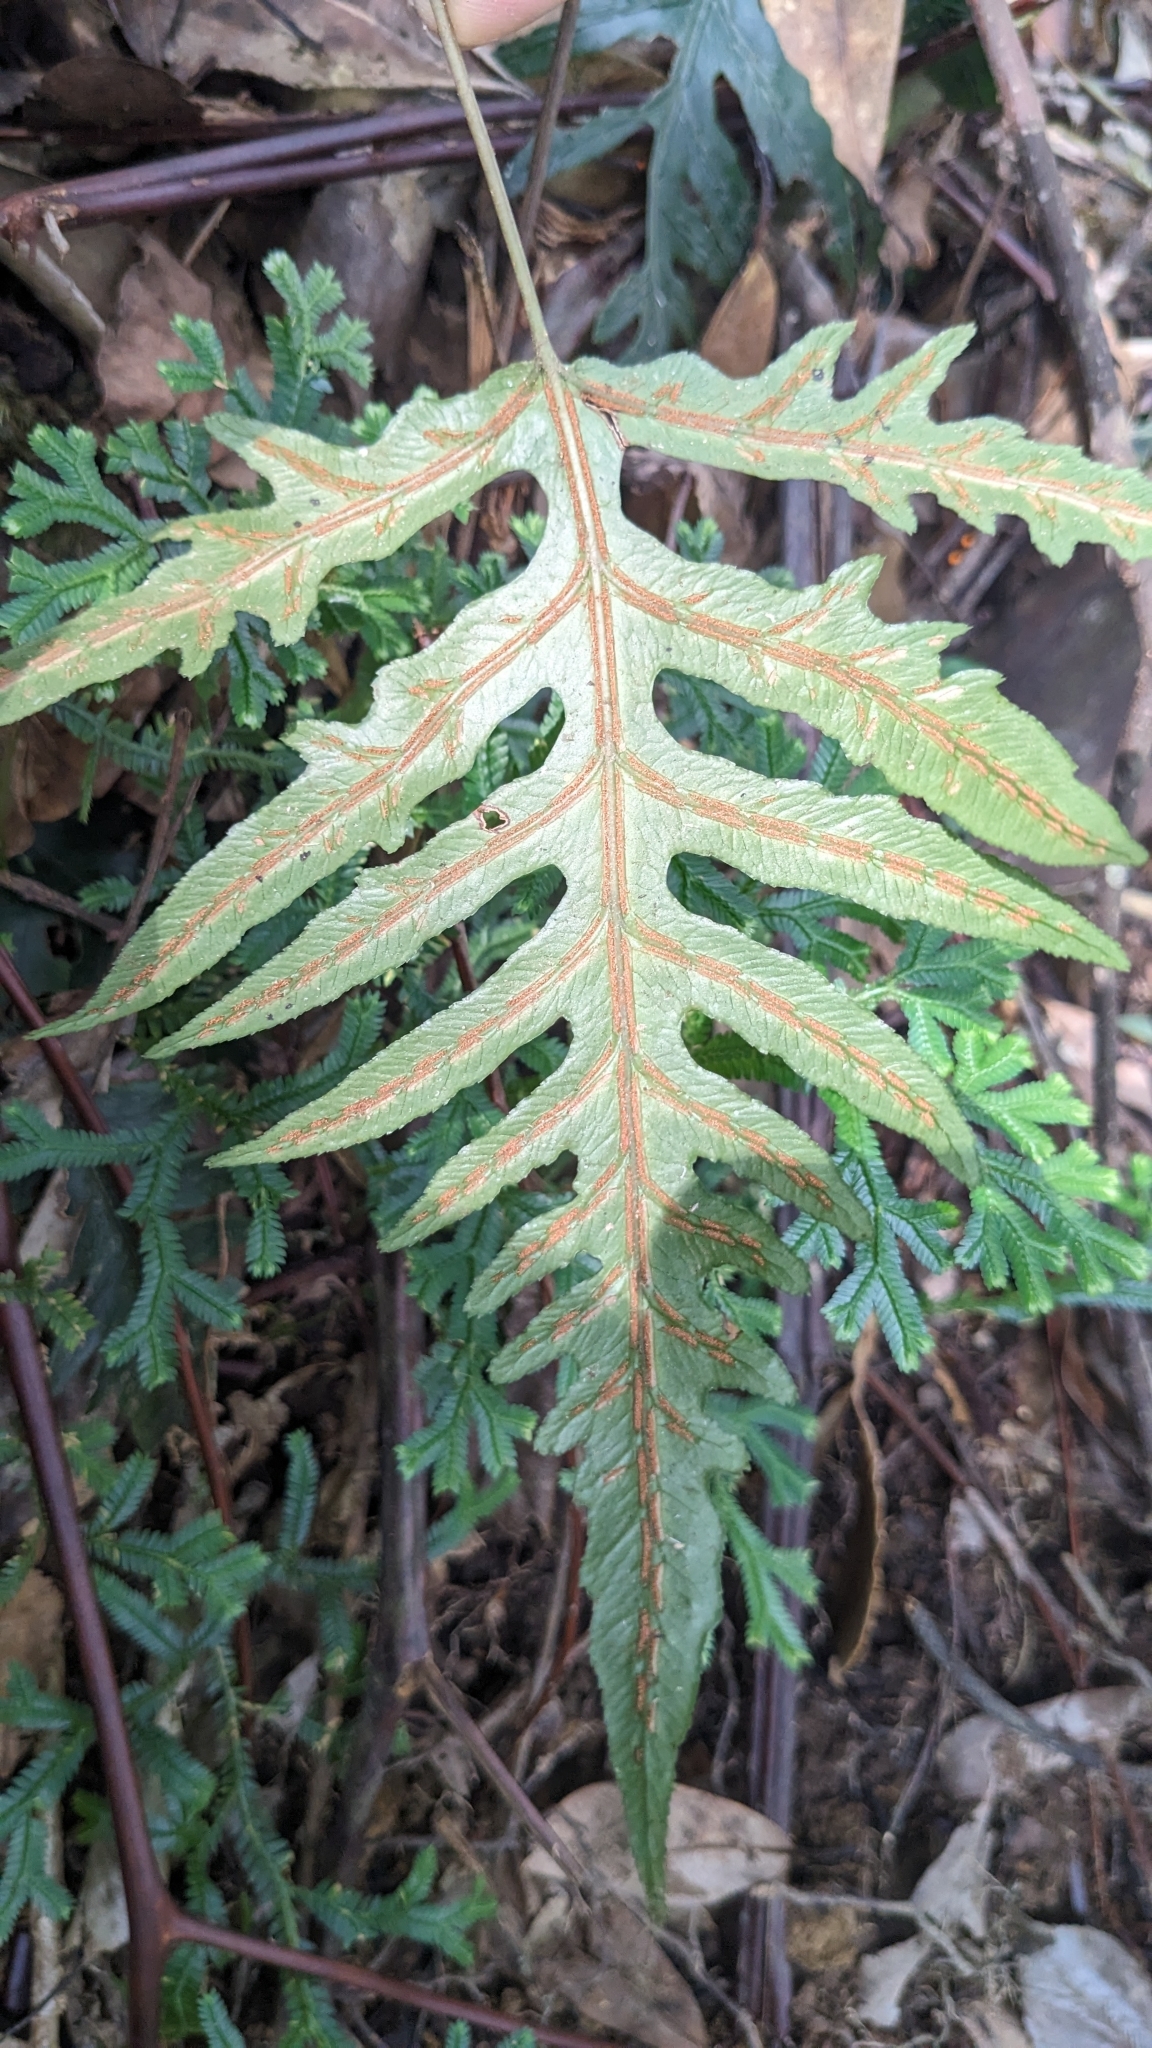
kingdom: Plantae
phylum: Tracheophyta
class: Polypodiopsida
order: Polypodiales
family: Blechnaceae
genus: Woodwardia
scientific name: Woodwardia kempii
